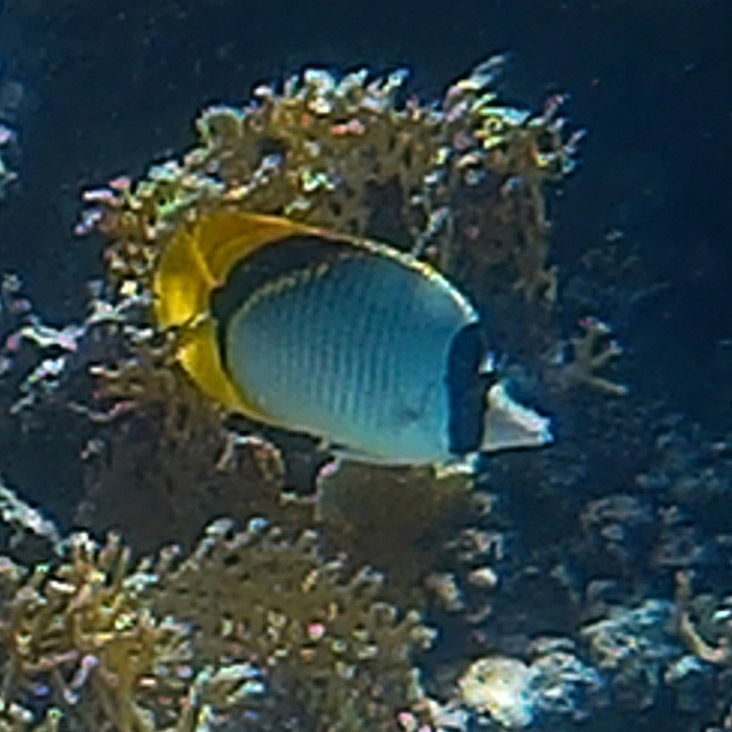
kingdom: Animalia
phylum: Chordata
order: Perciformes
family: Chaetodontidae
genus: Chaetodon
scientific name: Chaetodon lineolatus
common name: Lined butterflyfish
